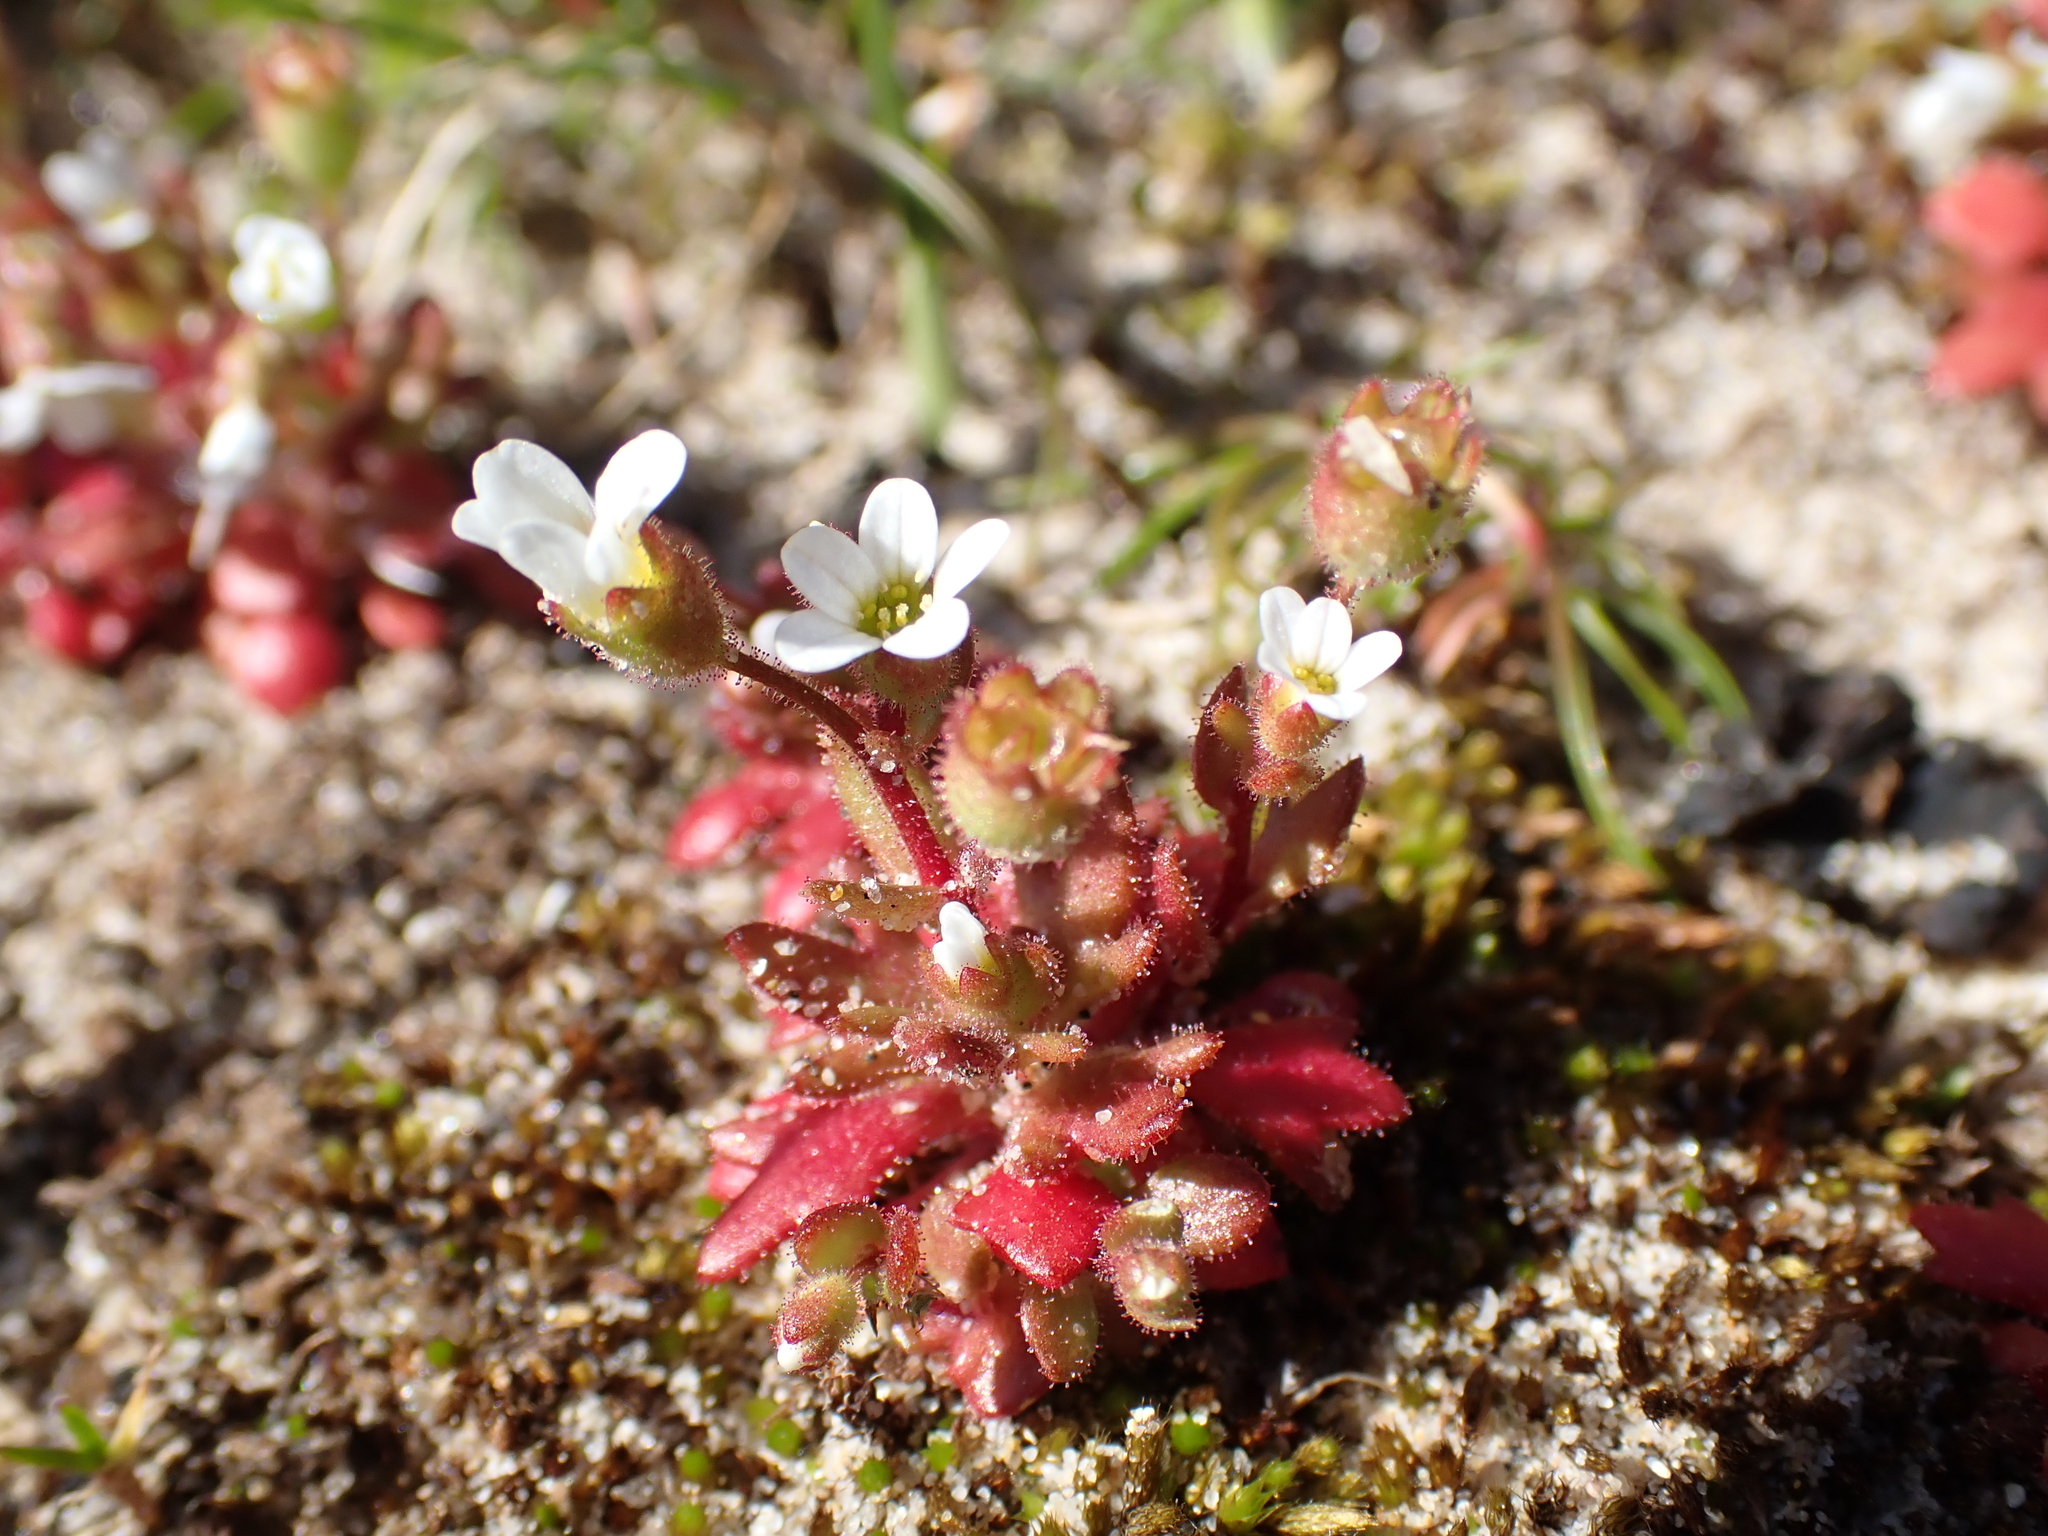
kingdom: Plantae
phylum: Tracheophyta
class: Magnoliopsida
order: Saxifragales
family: Saxifragaceae
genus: Saxifraga
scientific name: Saxifraga tridactylites
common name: Rue-leaved saxifrage
